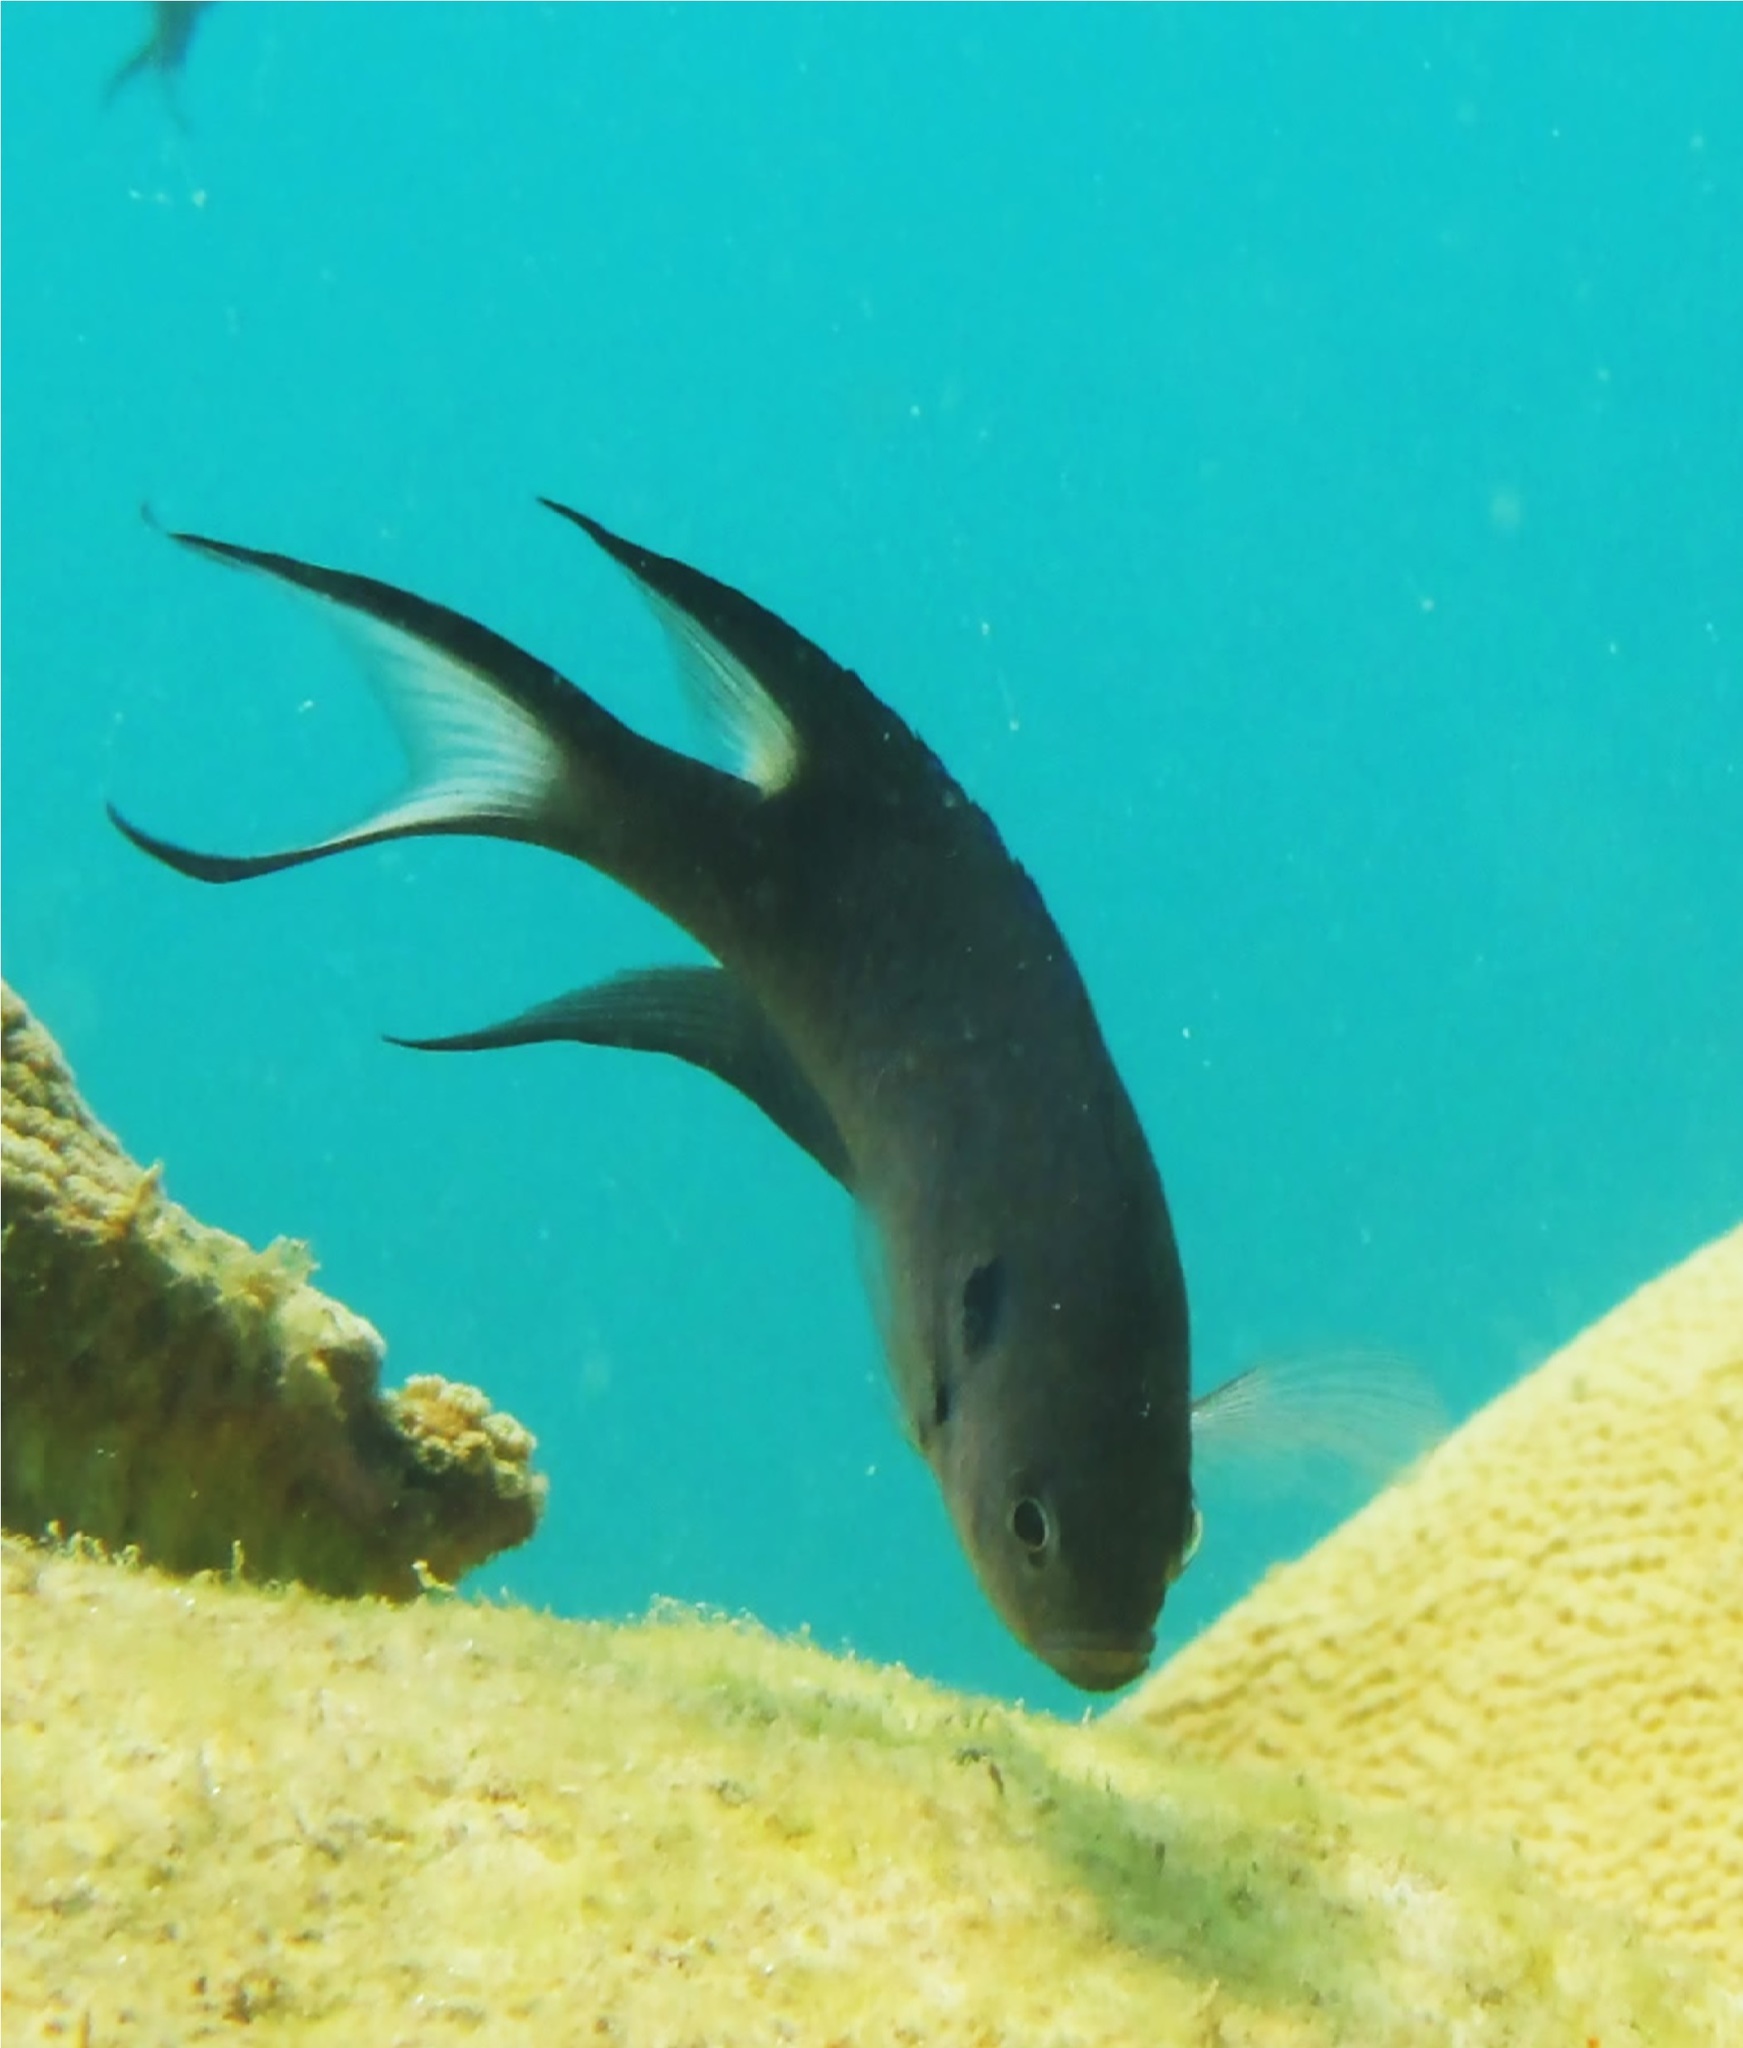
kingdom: Animalia
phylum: Chordata
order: Perciformes
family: Pomacentridae
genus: Neopomacentrus
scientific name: Neopomacentrus cyanomos
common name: Regal demoiselle
